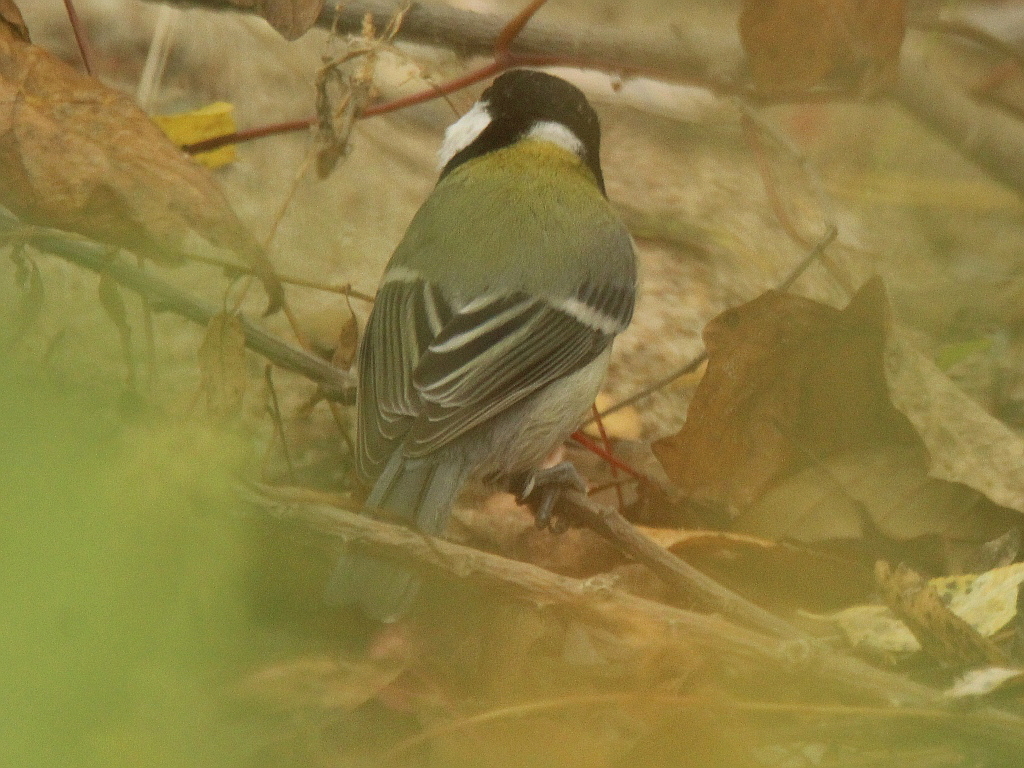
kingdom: Animalia
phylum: Chordata
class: Aves
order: Passeriformes
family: Paridae
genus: Parus
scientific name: Parus minor
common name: Japanese tit
